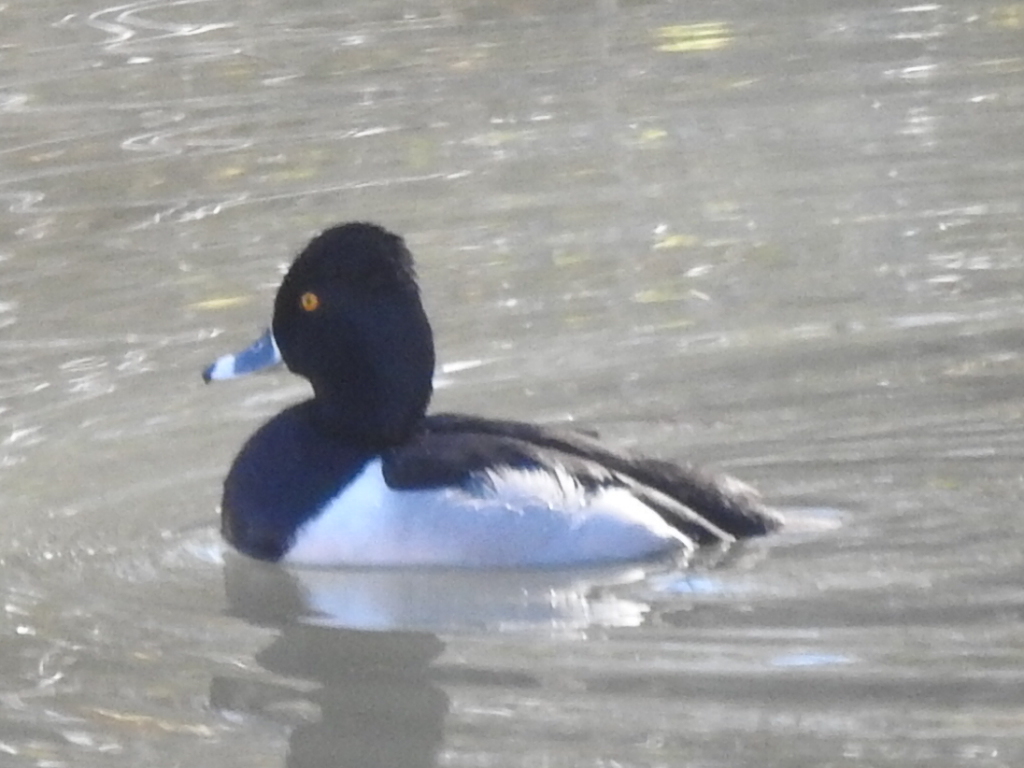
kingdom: Animalia
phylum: Chordata
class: Aves
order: Anseriformes
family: Anatidae
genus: Aythya
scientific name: Aythya collaris
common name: Ring-necked duck
